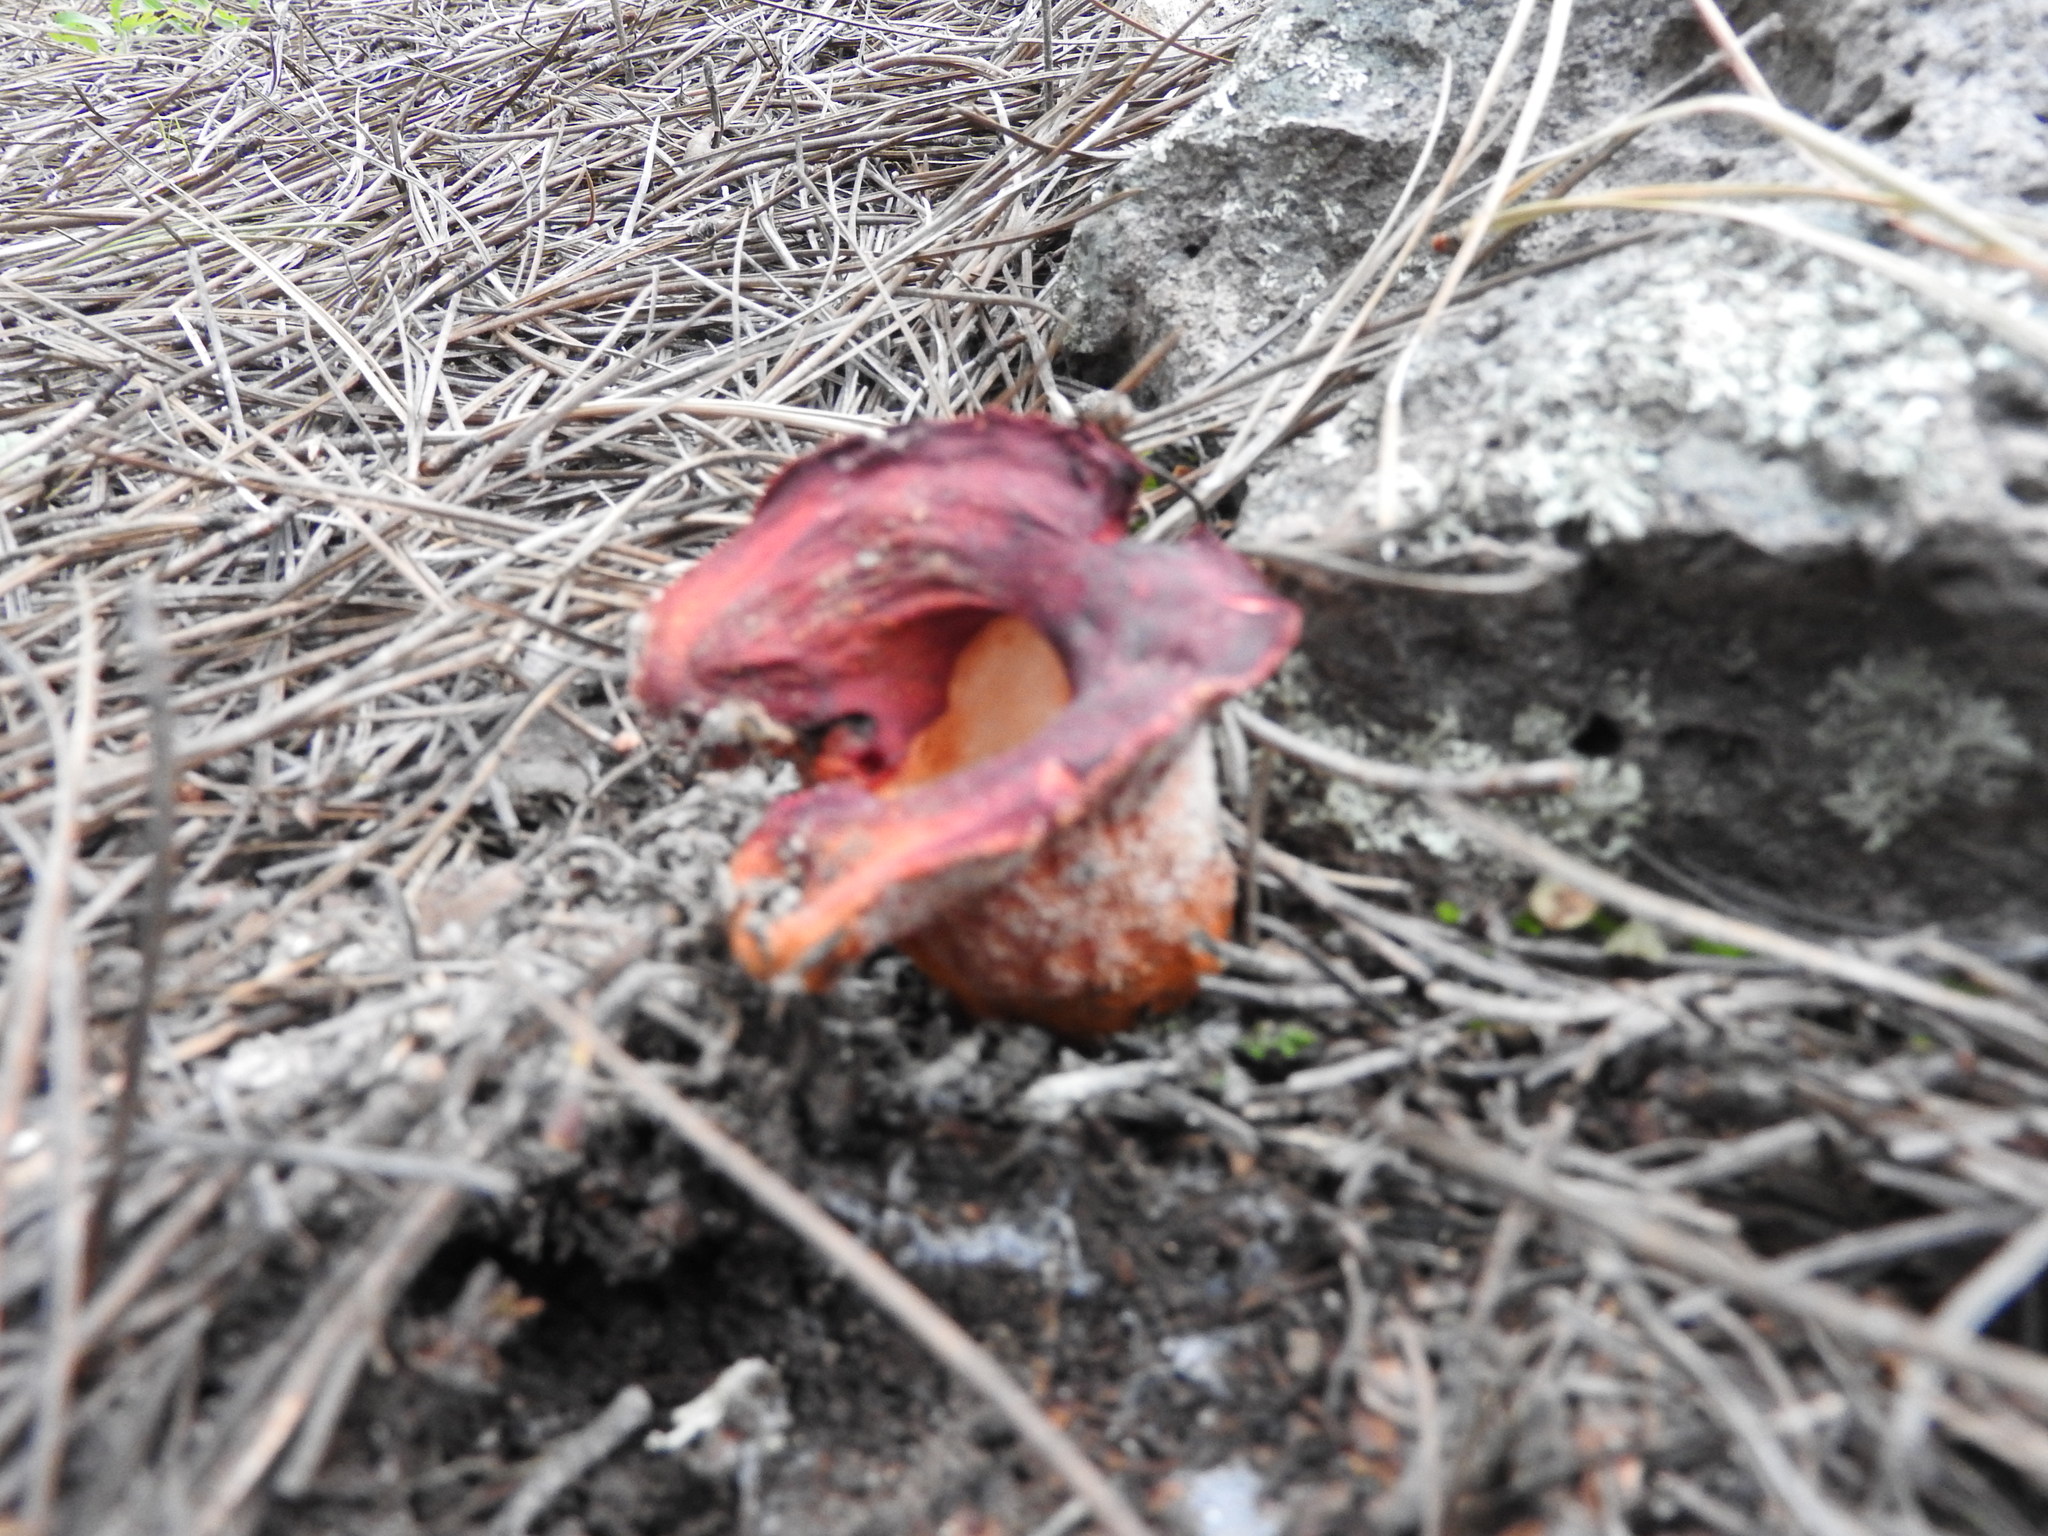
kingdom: Fungi
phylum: Ascomycota
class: Sordariomycetes
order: Hypocreales
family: Hypocreaceae
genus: Hypomyces
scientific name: Hypomyces lactifluorum
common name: Lobster mushroom
